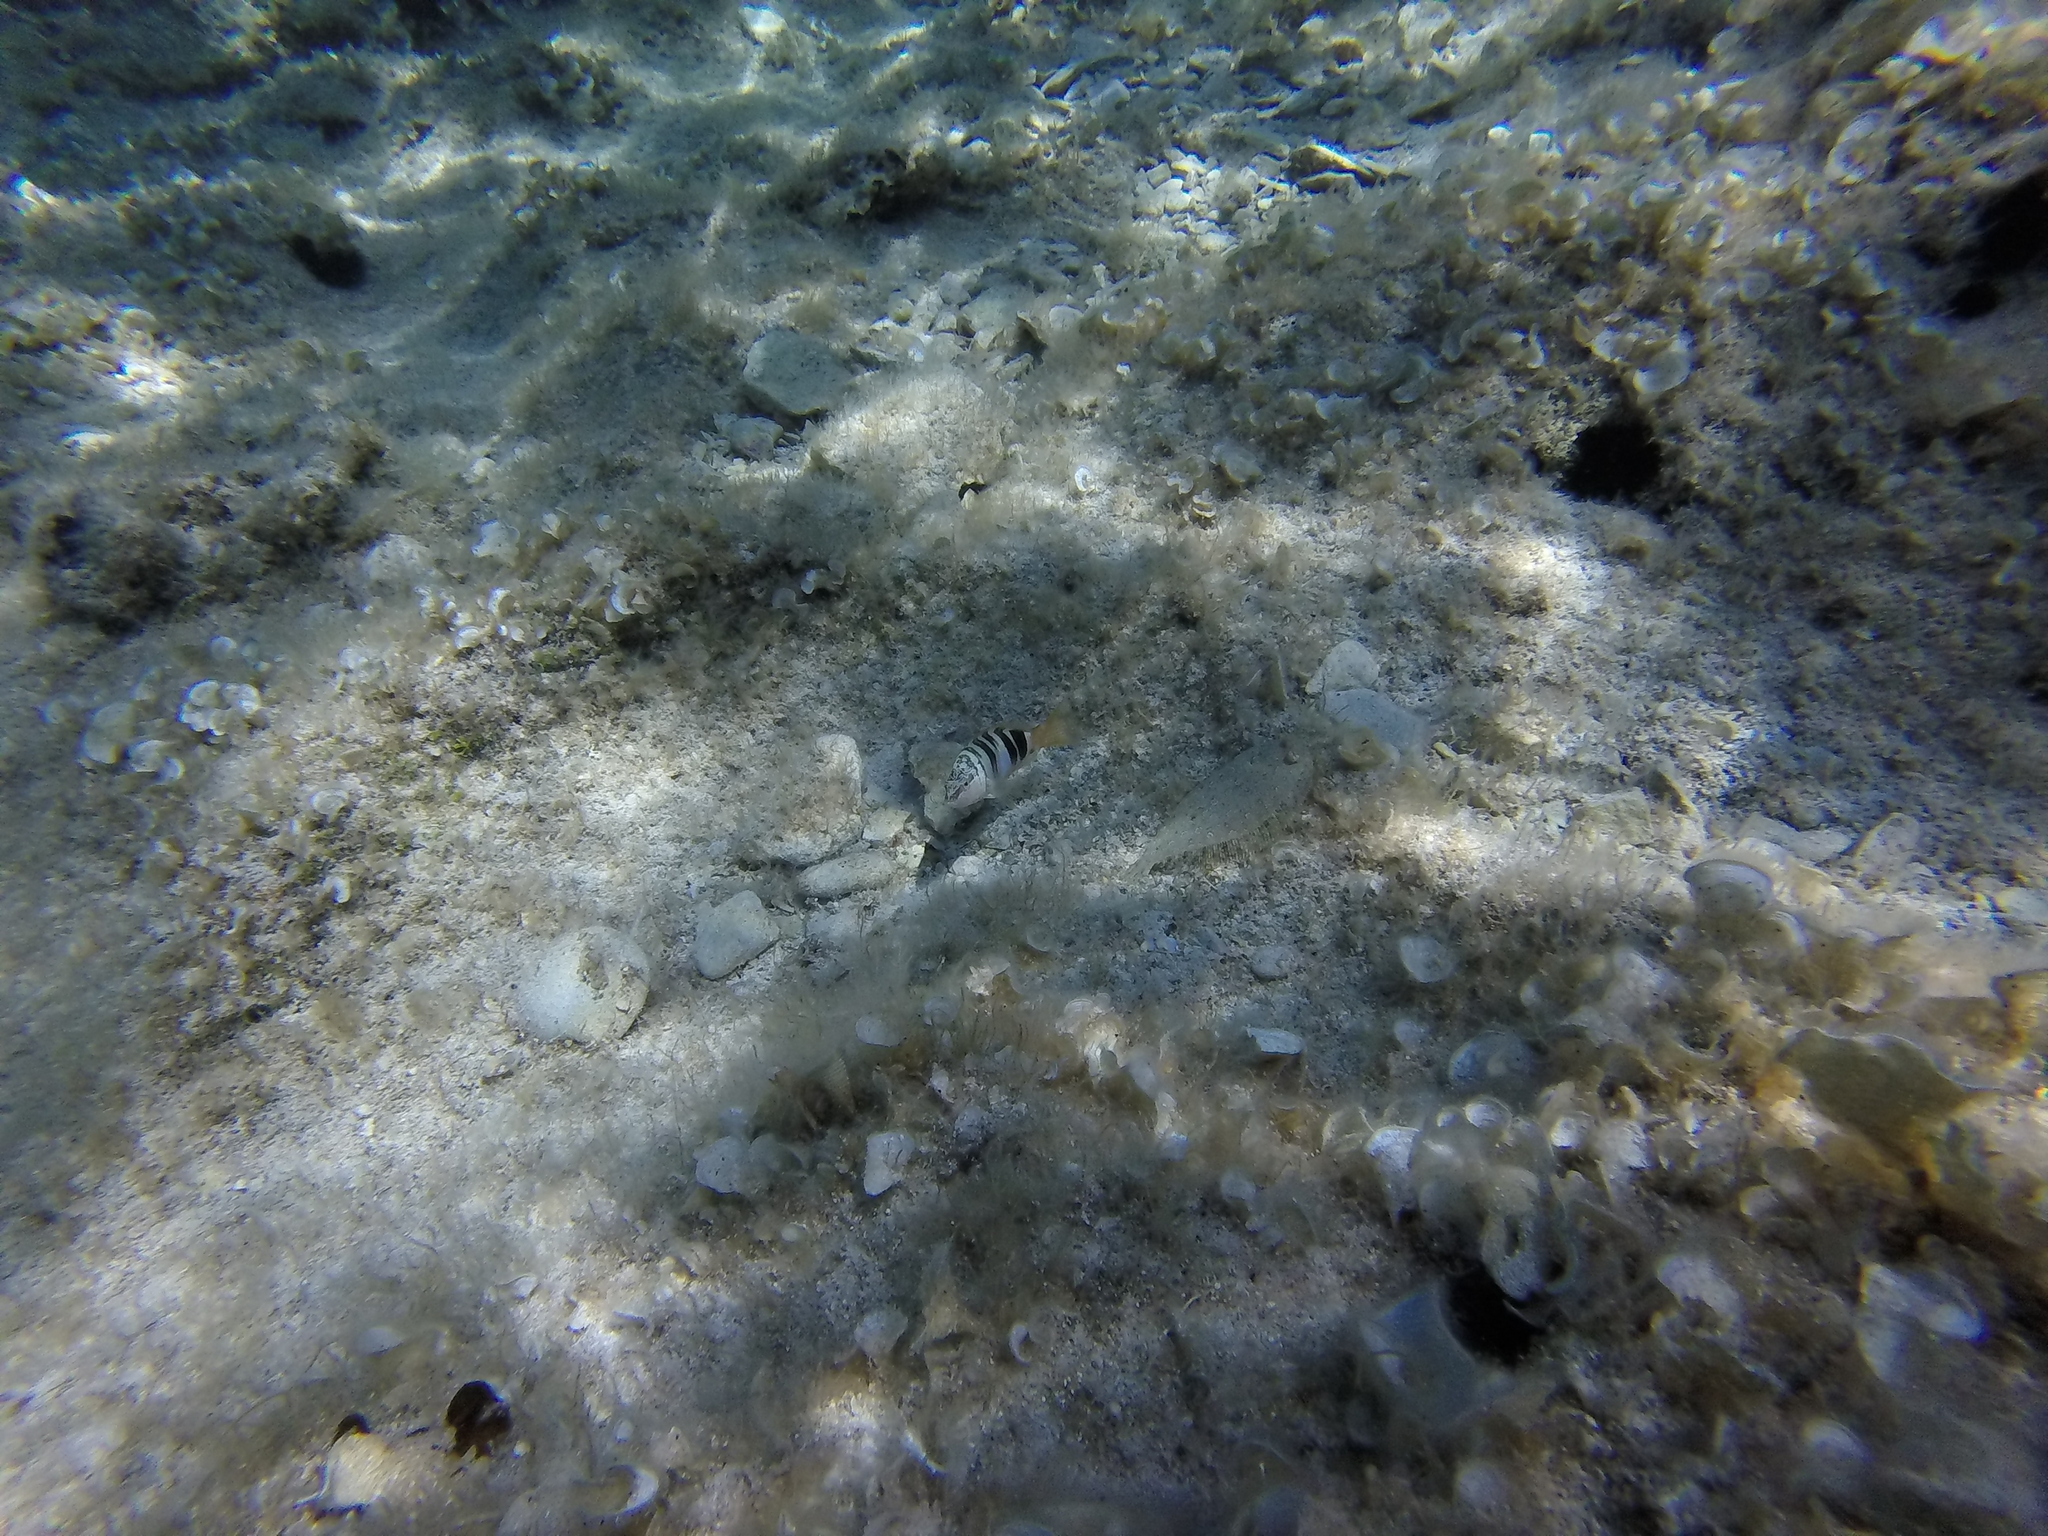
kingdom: Animalia
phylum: Chordata
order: Perciformes
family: Serranidae
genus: Serranus
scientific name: Serranus scriba
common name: Painted comber
